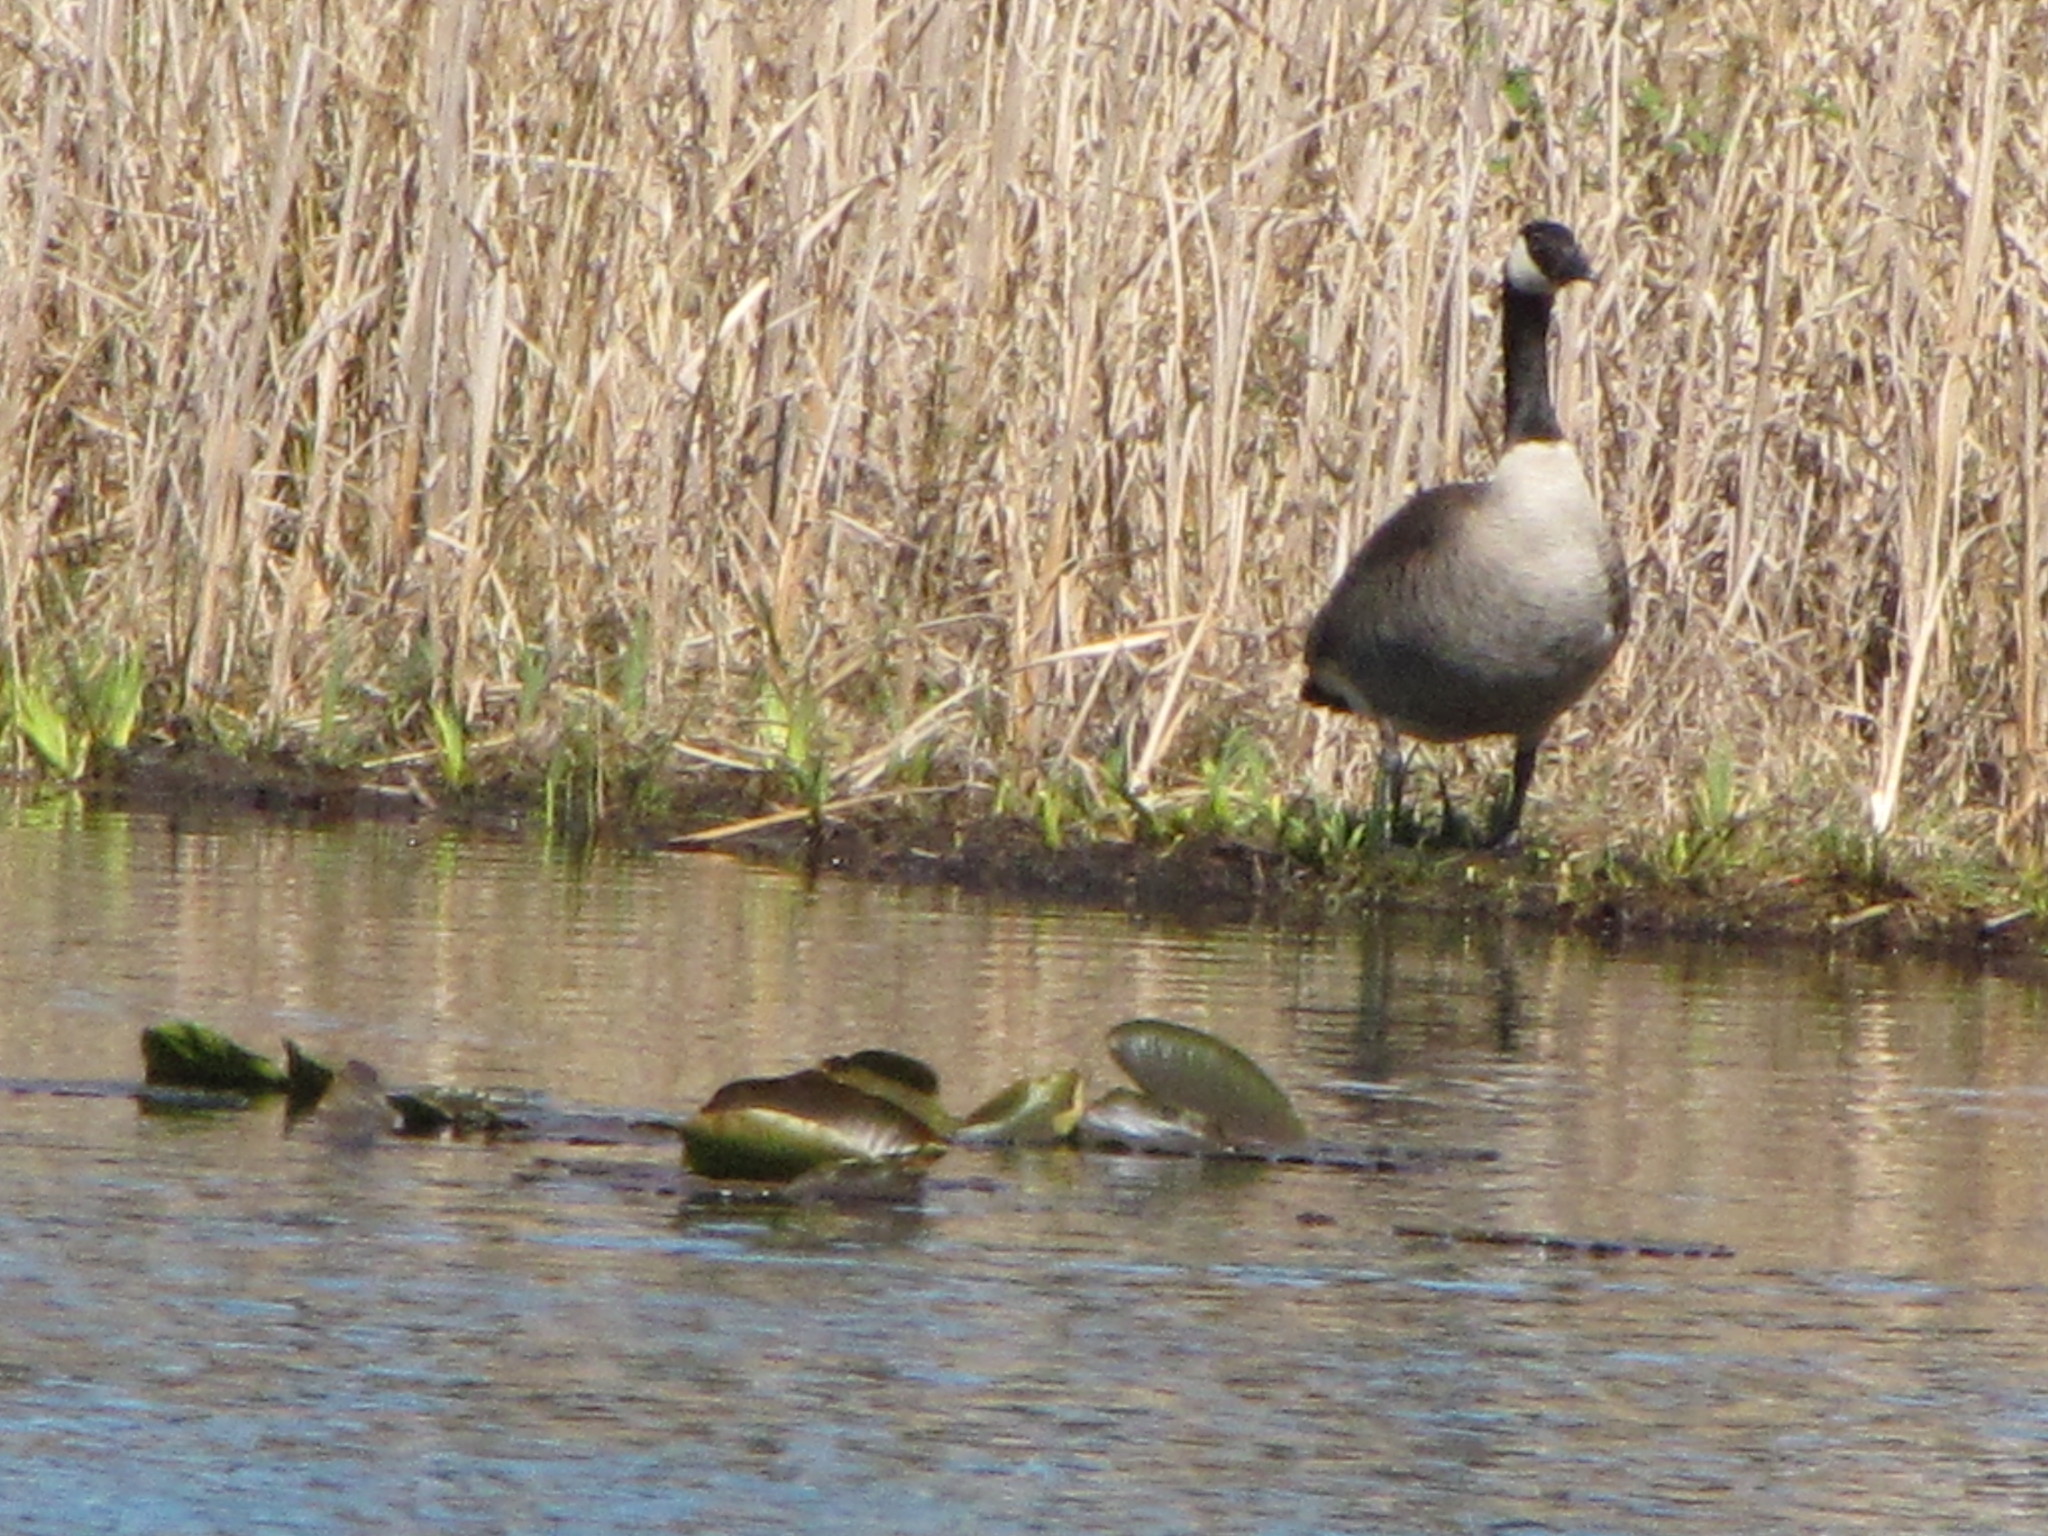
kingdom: Animalia
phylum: Chordata
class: Aves
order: Anseriformes
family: Anatidae
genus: Branta
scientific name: Branta canadensis
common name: Canada goose
